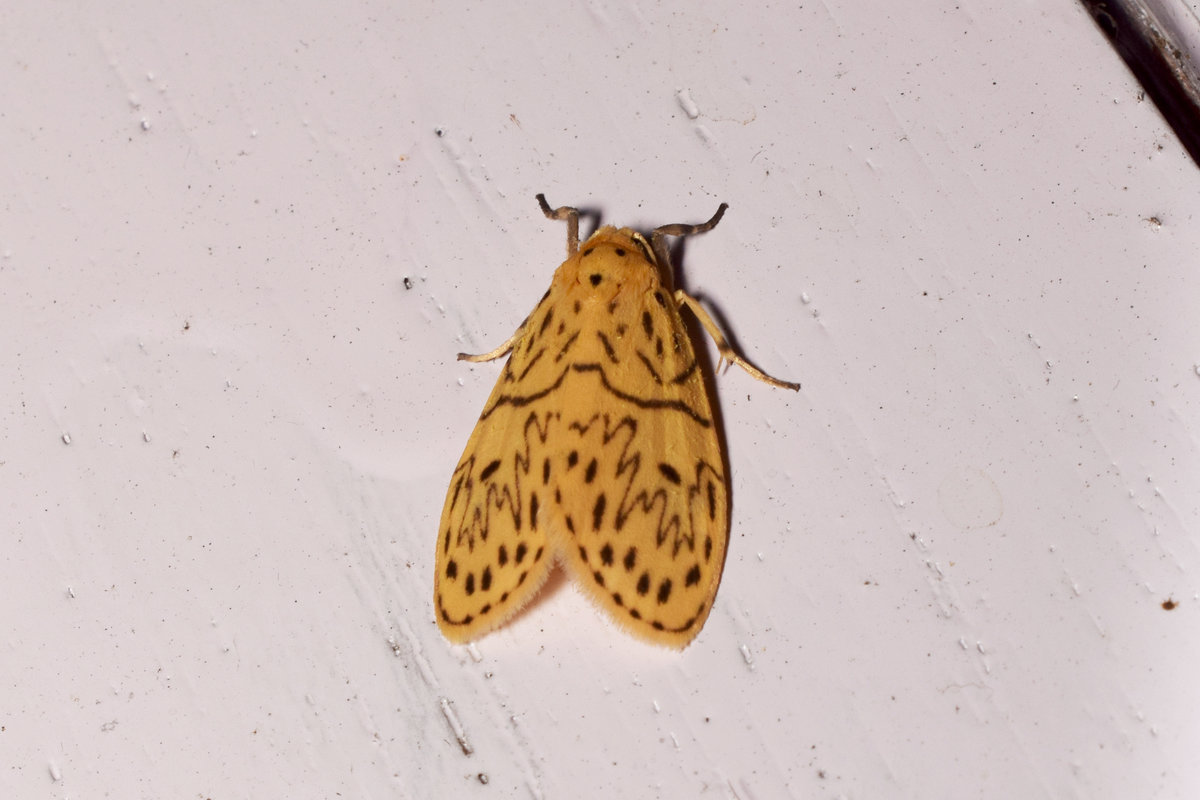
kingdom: Animalia
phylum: Arthropoda
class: Insecta
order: Lepidoptera
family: Erebidae
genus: Miltochrista
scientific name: Miltochrista undulosa
